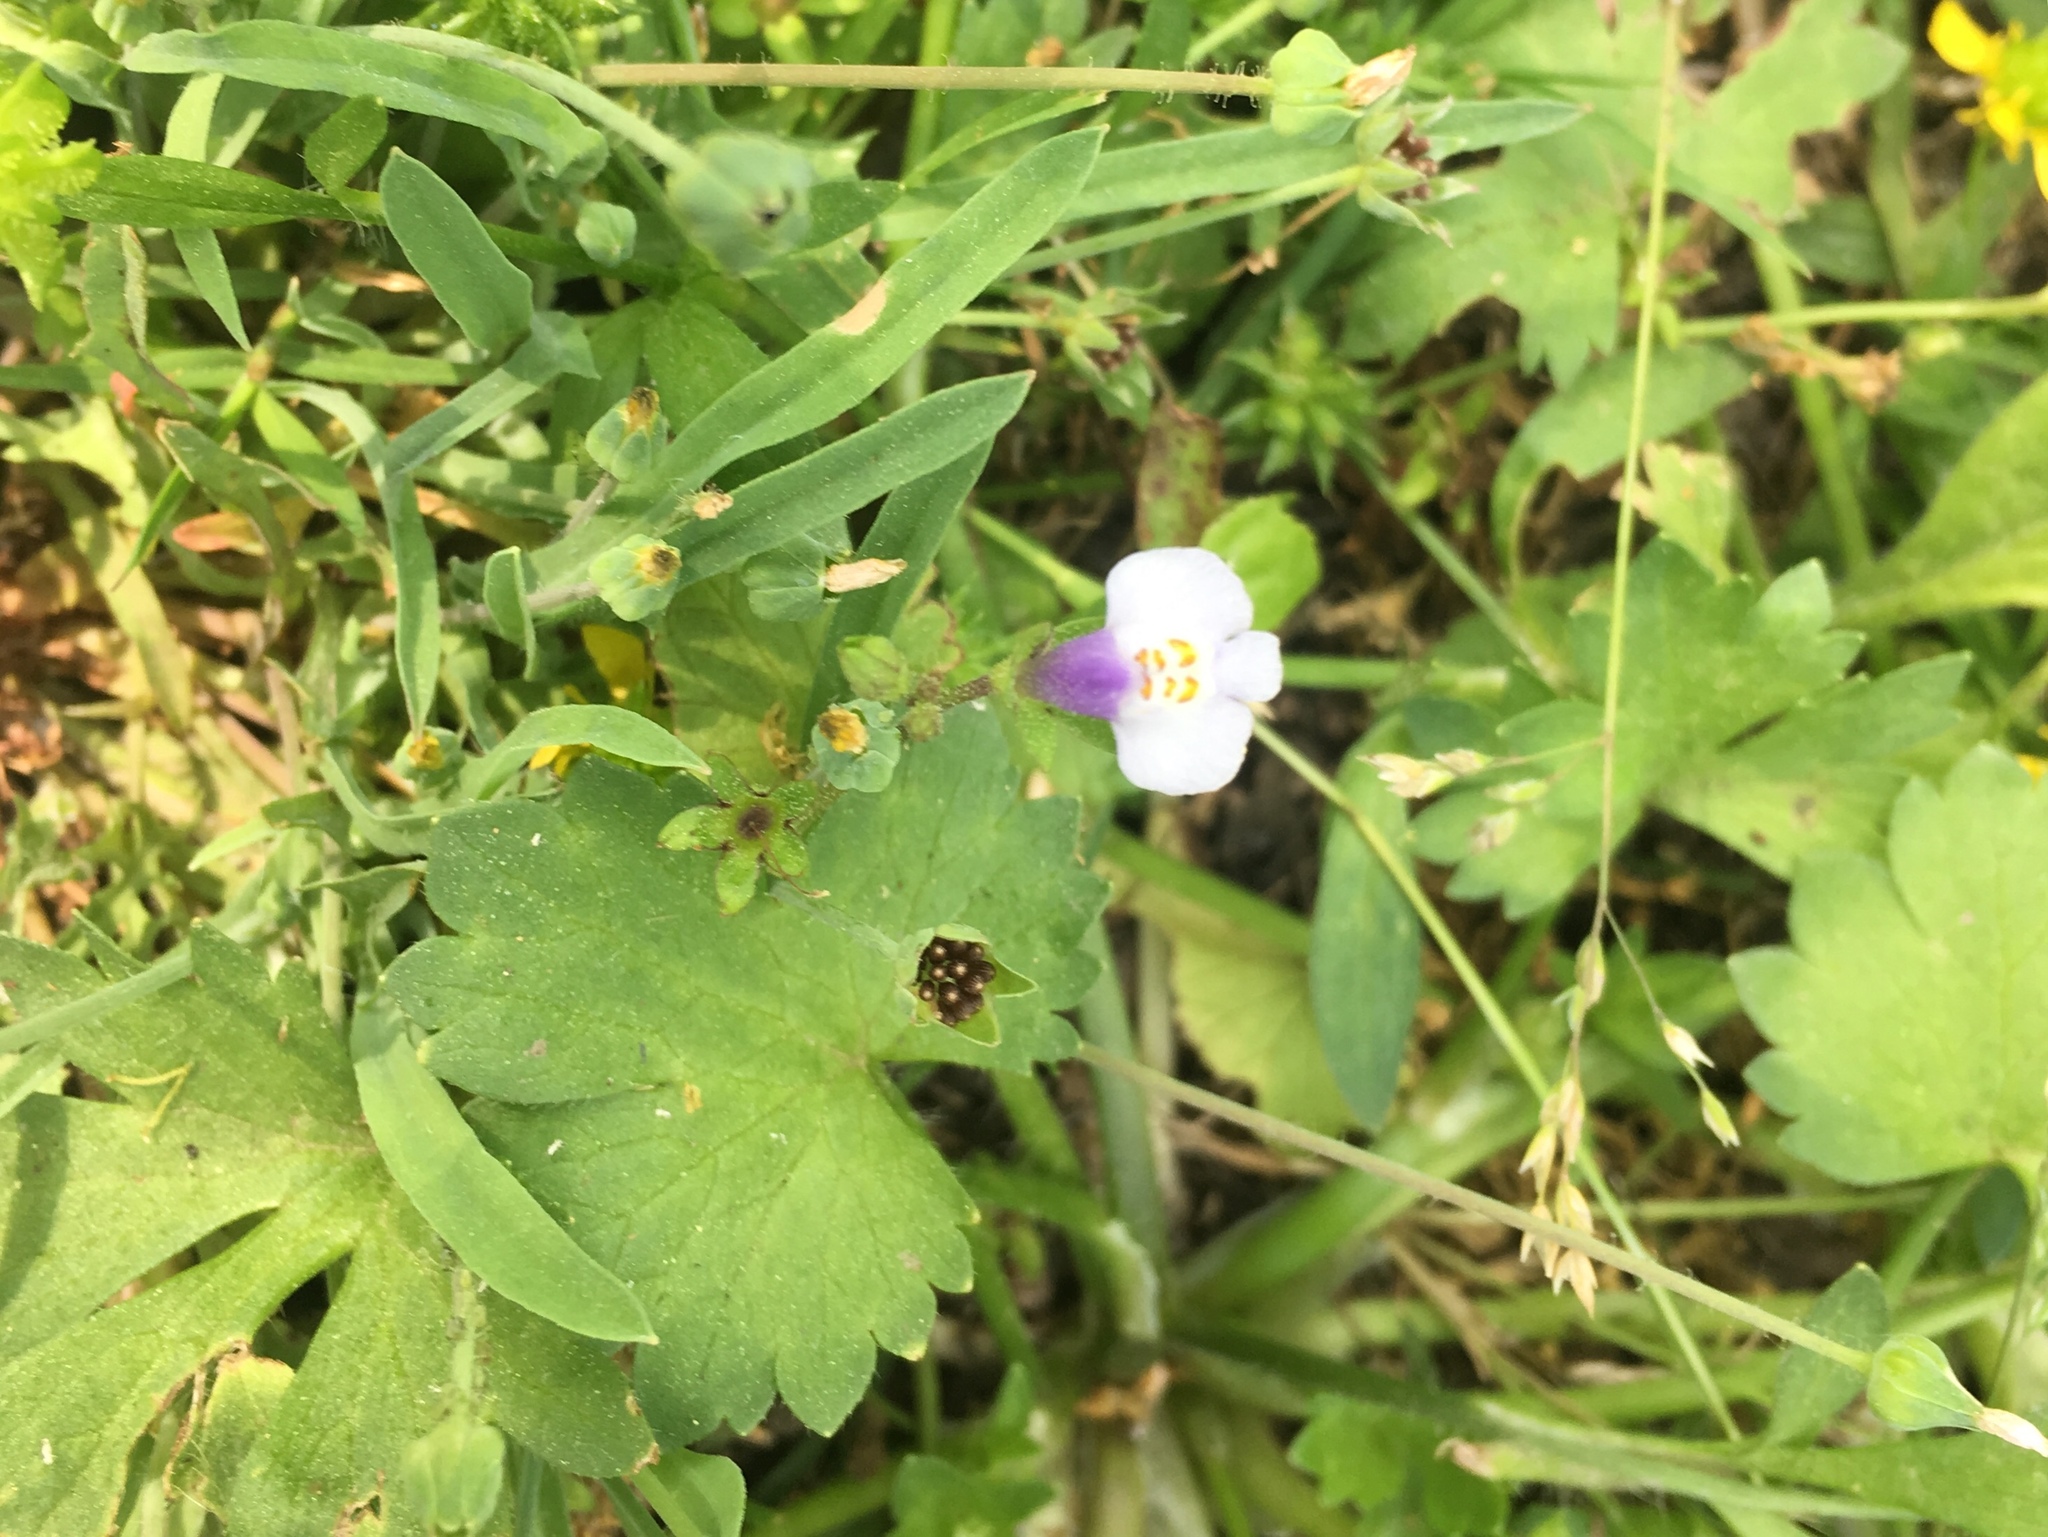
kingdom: Plantae
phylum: Tracheophyta
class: Magnoliopsida
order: Lamiales
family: Mazaceae
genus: Mazus
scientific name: Mazus pumilus
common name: Japanese mazus
